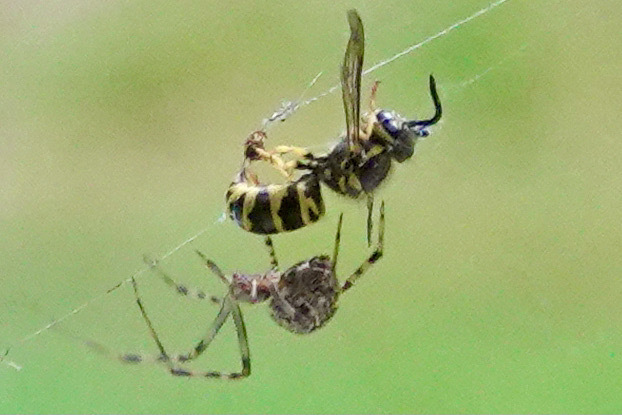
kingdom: Animalia
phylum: Arthropoda
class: Insecta
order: Hymenoptera
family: Vespidae
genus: Vespula
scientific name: Vespula maculifrons
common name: Eastern yellowjacket
